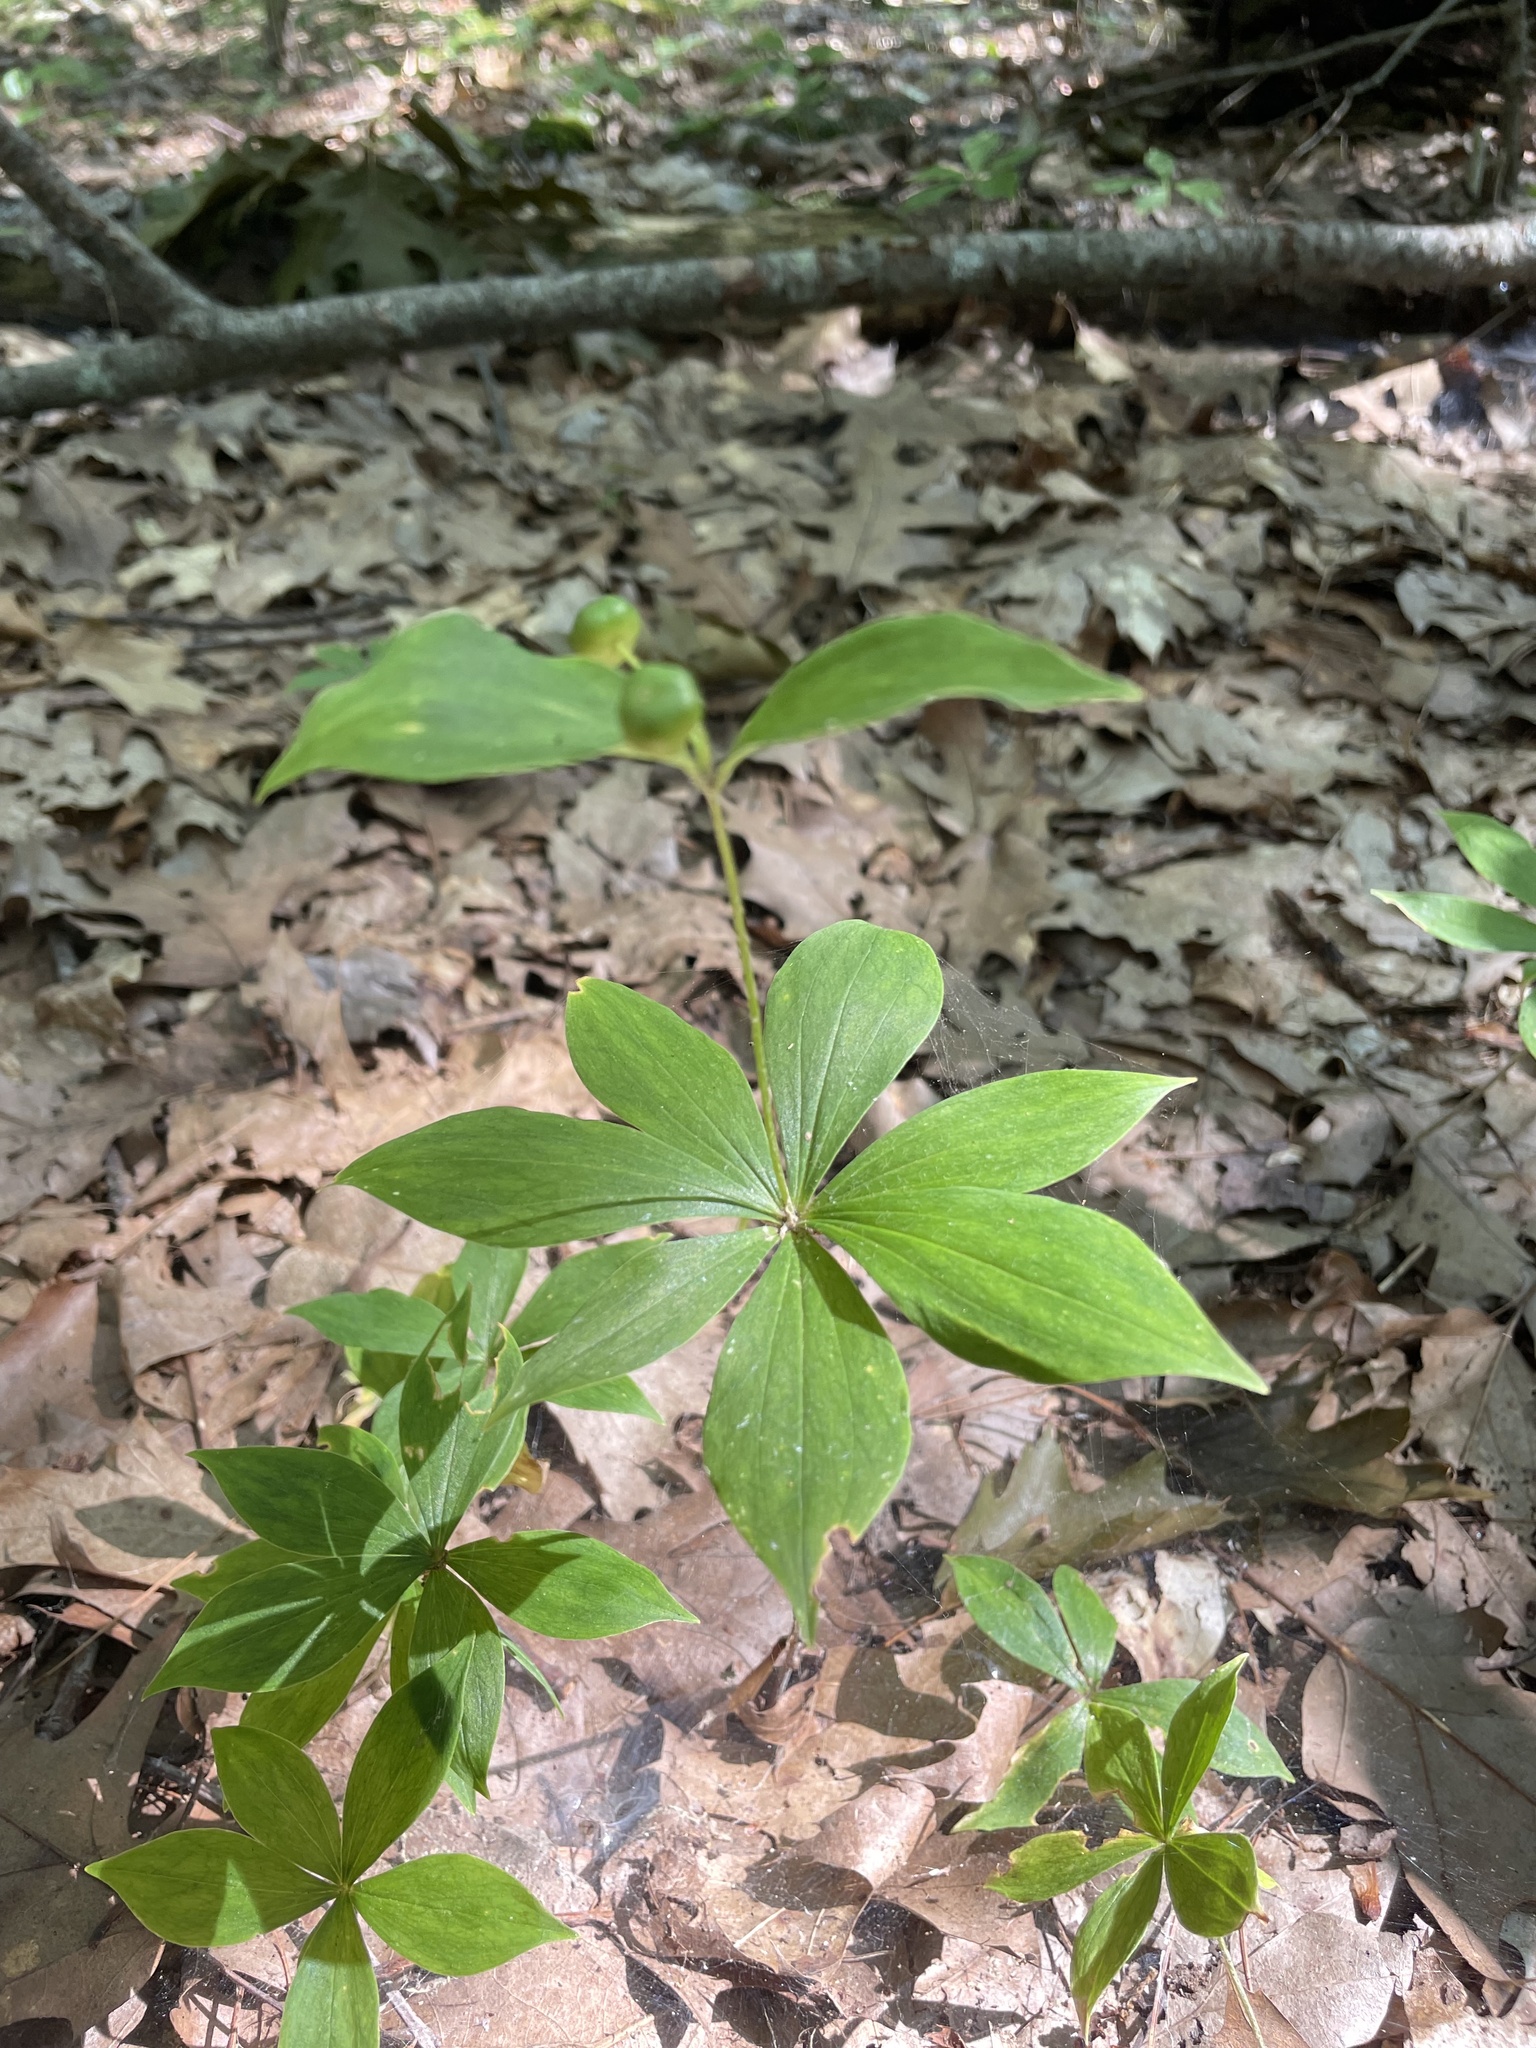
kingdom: Plantae
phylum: Tracheophyta
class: Liliopsida
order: Liliales
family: Liliaceae
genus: Medeola
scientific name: Medeola virginiana
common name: Indian cucumber-root
